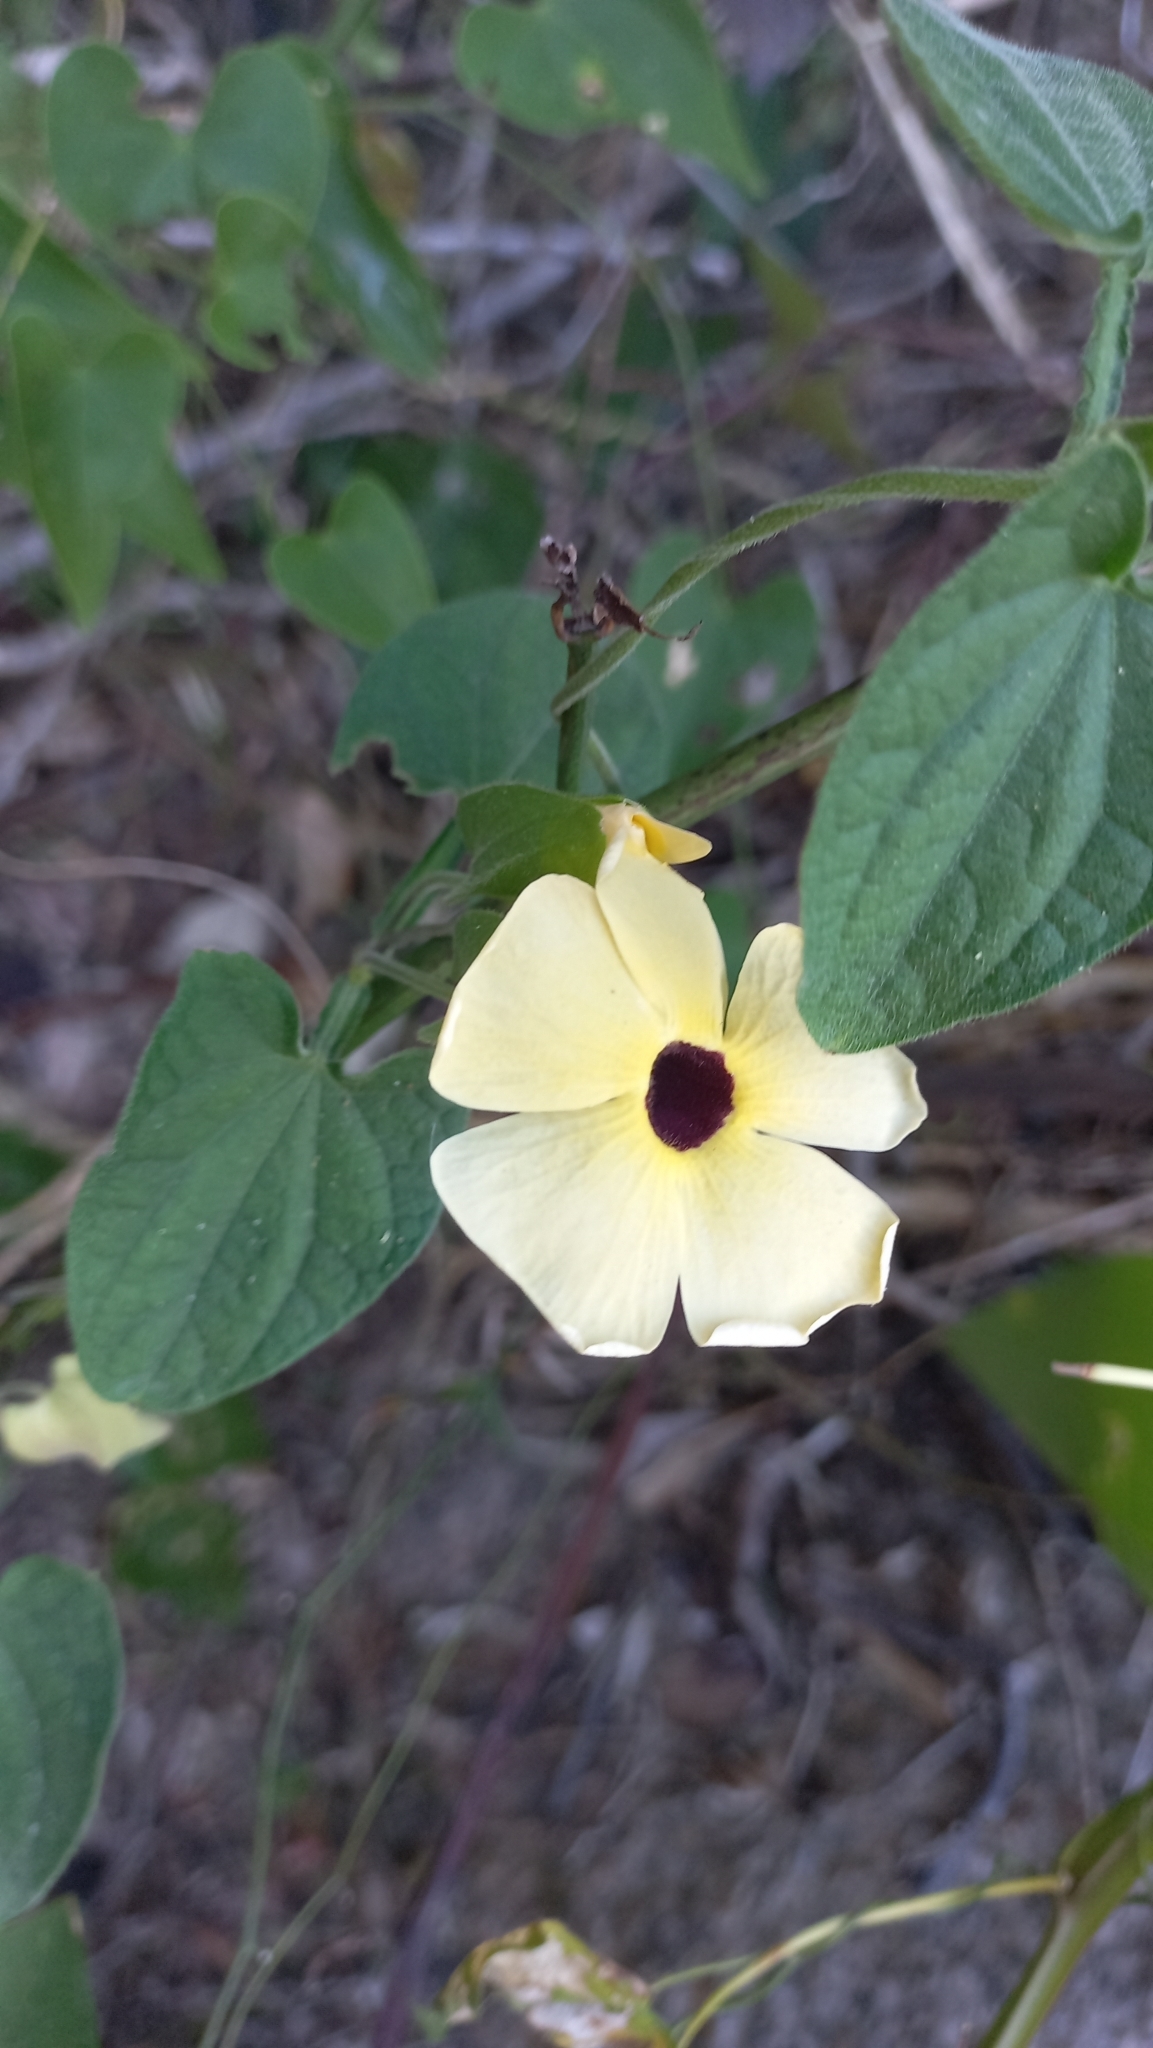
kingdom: Plantae
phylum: Tracheophyta
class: Magnoliopsida
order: Lamiales
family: Acanthaceae
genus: Thunbergia
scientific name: Thunbergia alata
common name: Blackeyed susan vine
